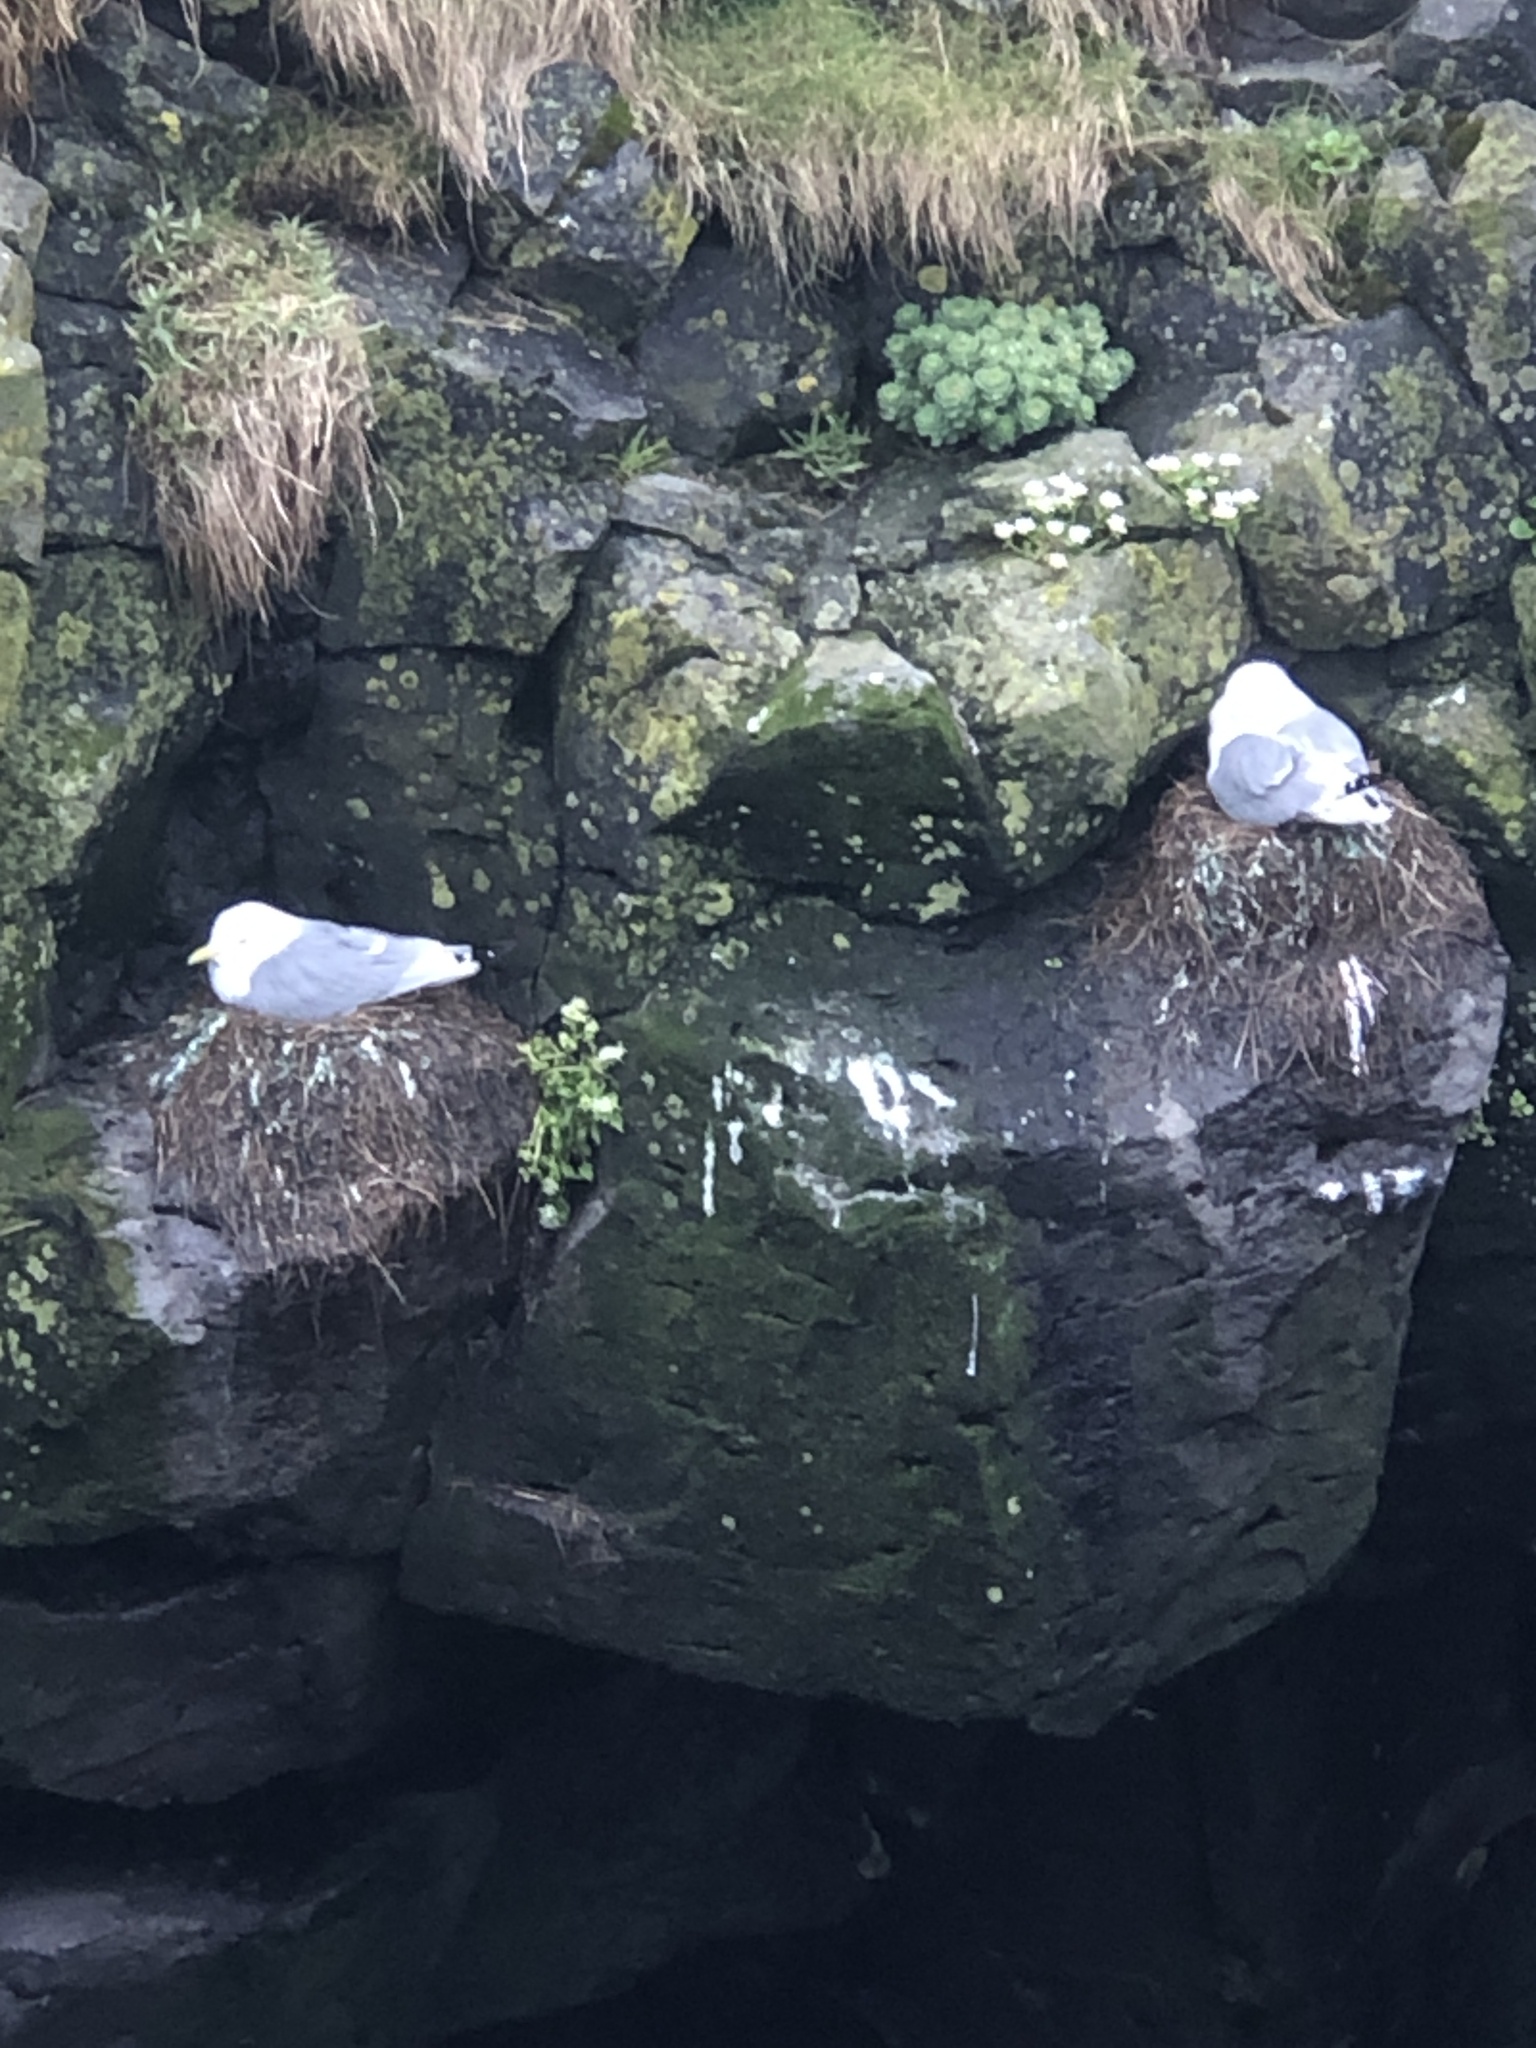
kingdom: Animalia
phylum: Chordata
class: Aves
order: Charadriiformes
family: Laridae
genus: Rissa
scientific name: Rissa tridactyla
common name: Black-legged kittiwake
